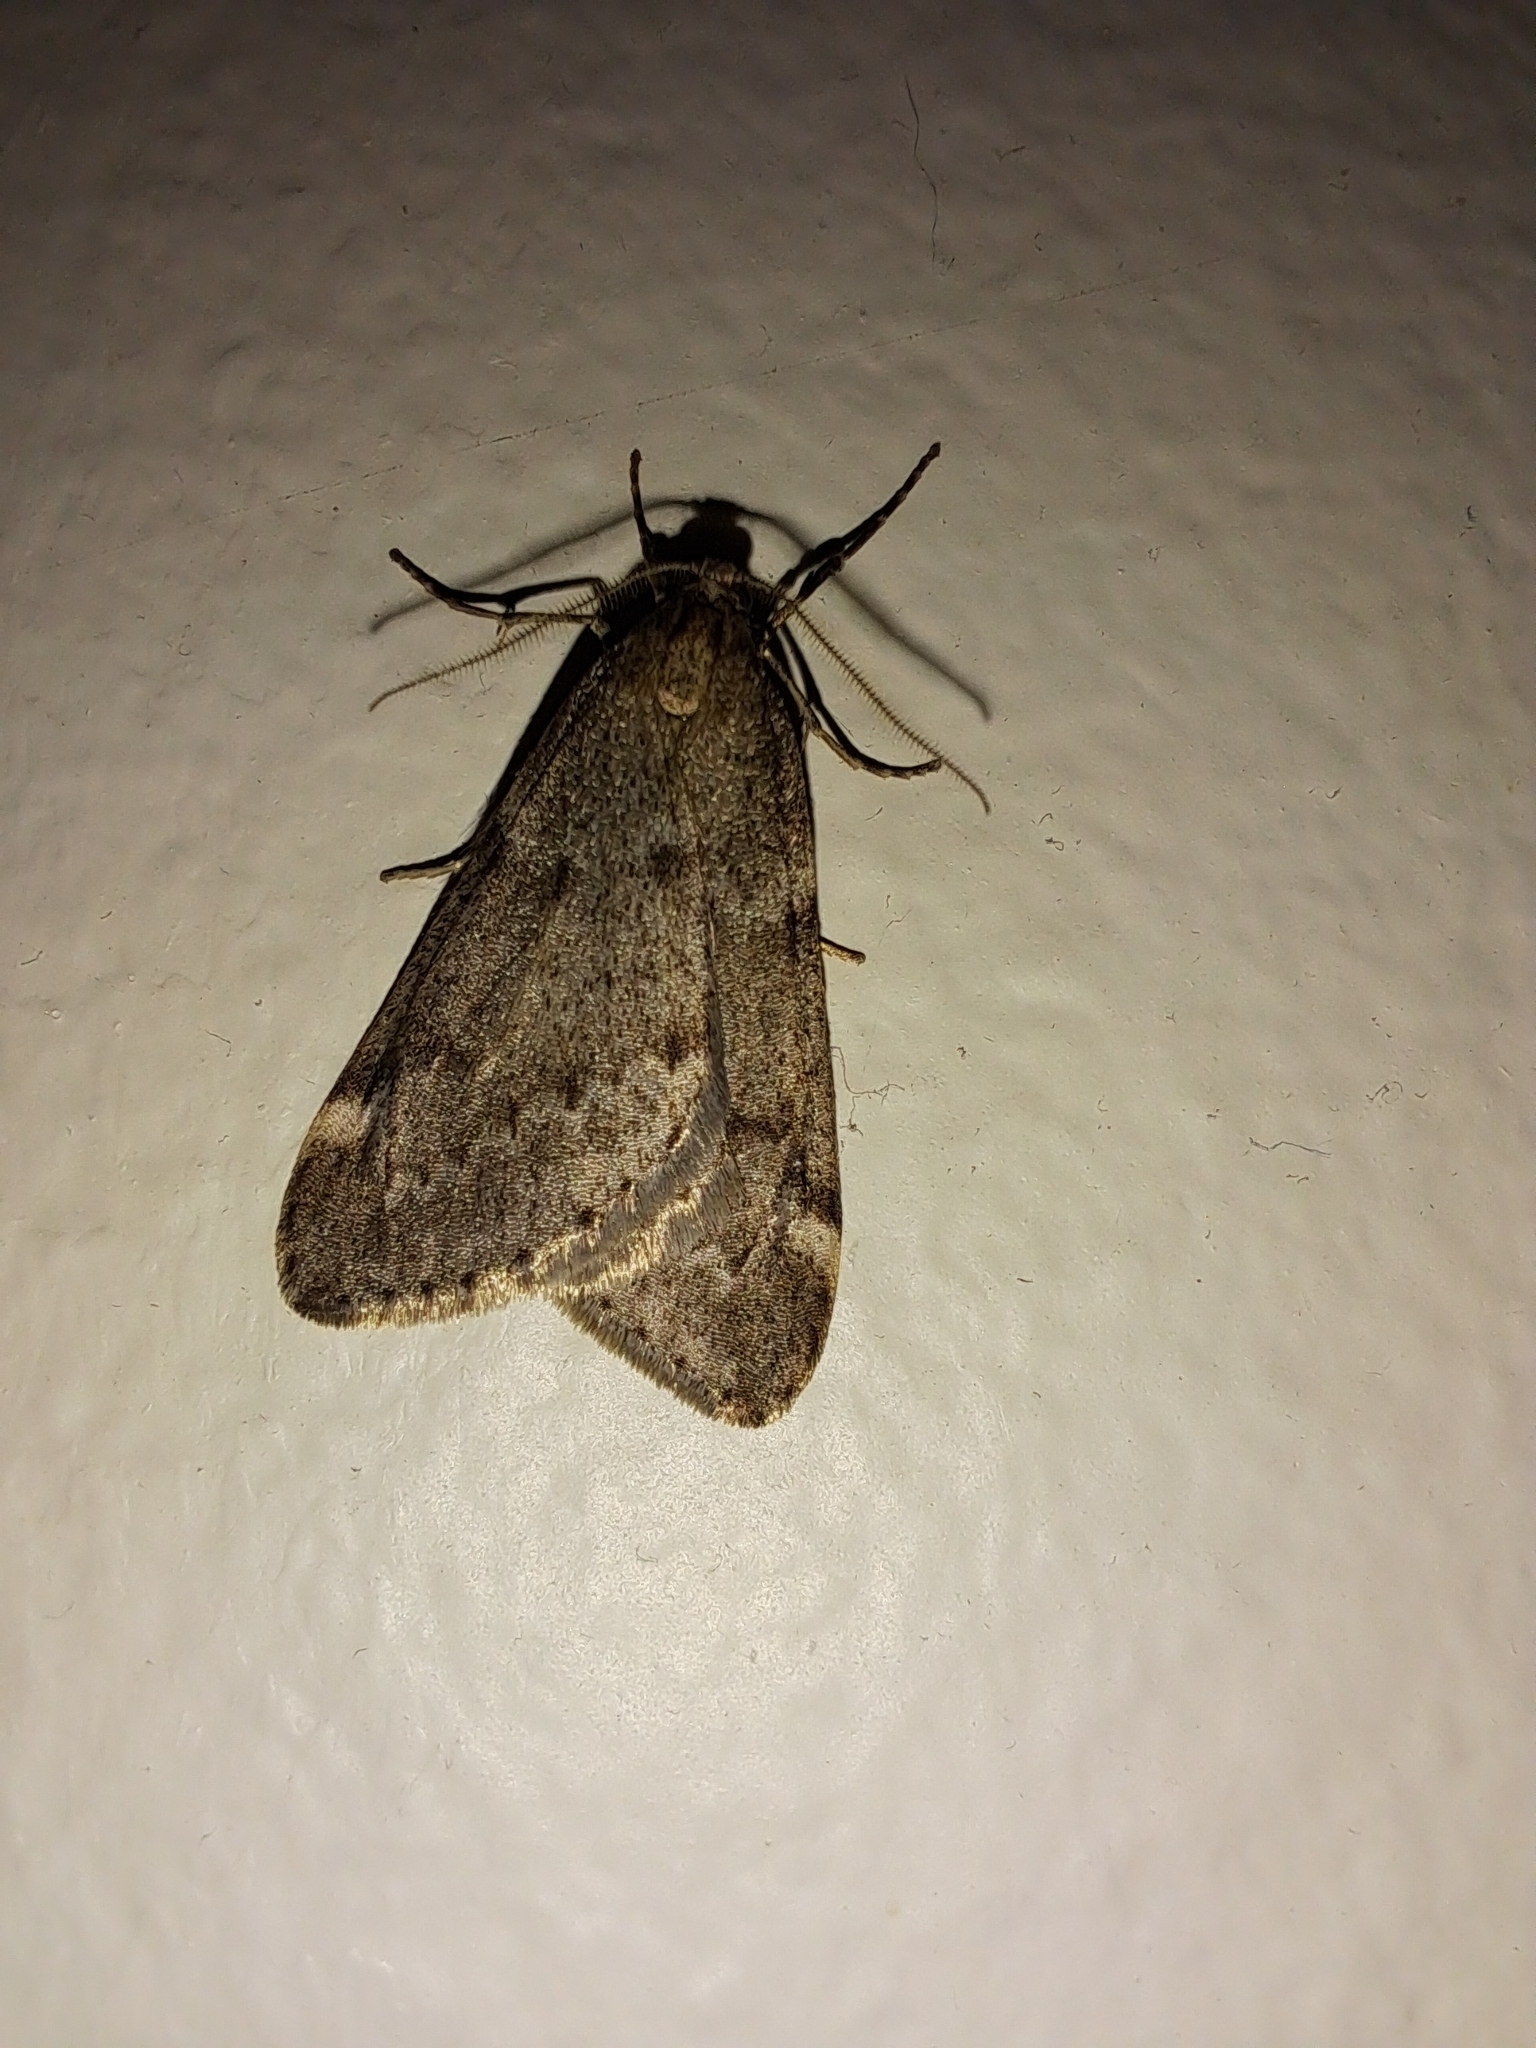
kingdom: Animalia
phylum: Arthropoda
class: Insecta
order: Lepidoptera
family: Geometridae
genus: Alsophila
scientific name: Alsophila pometaria
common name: Fall cankerworm
